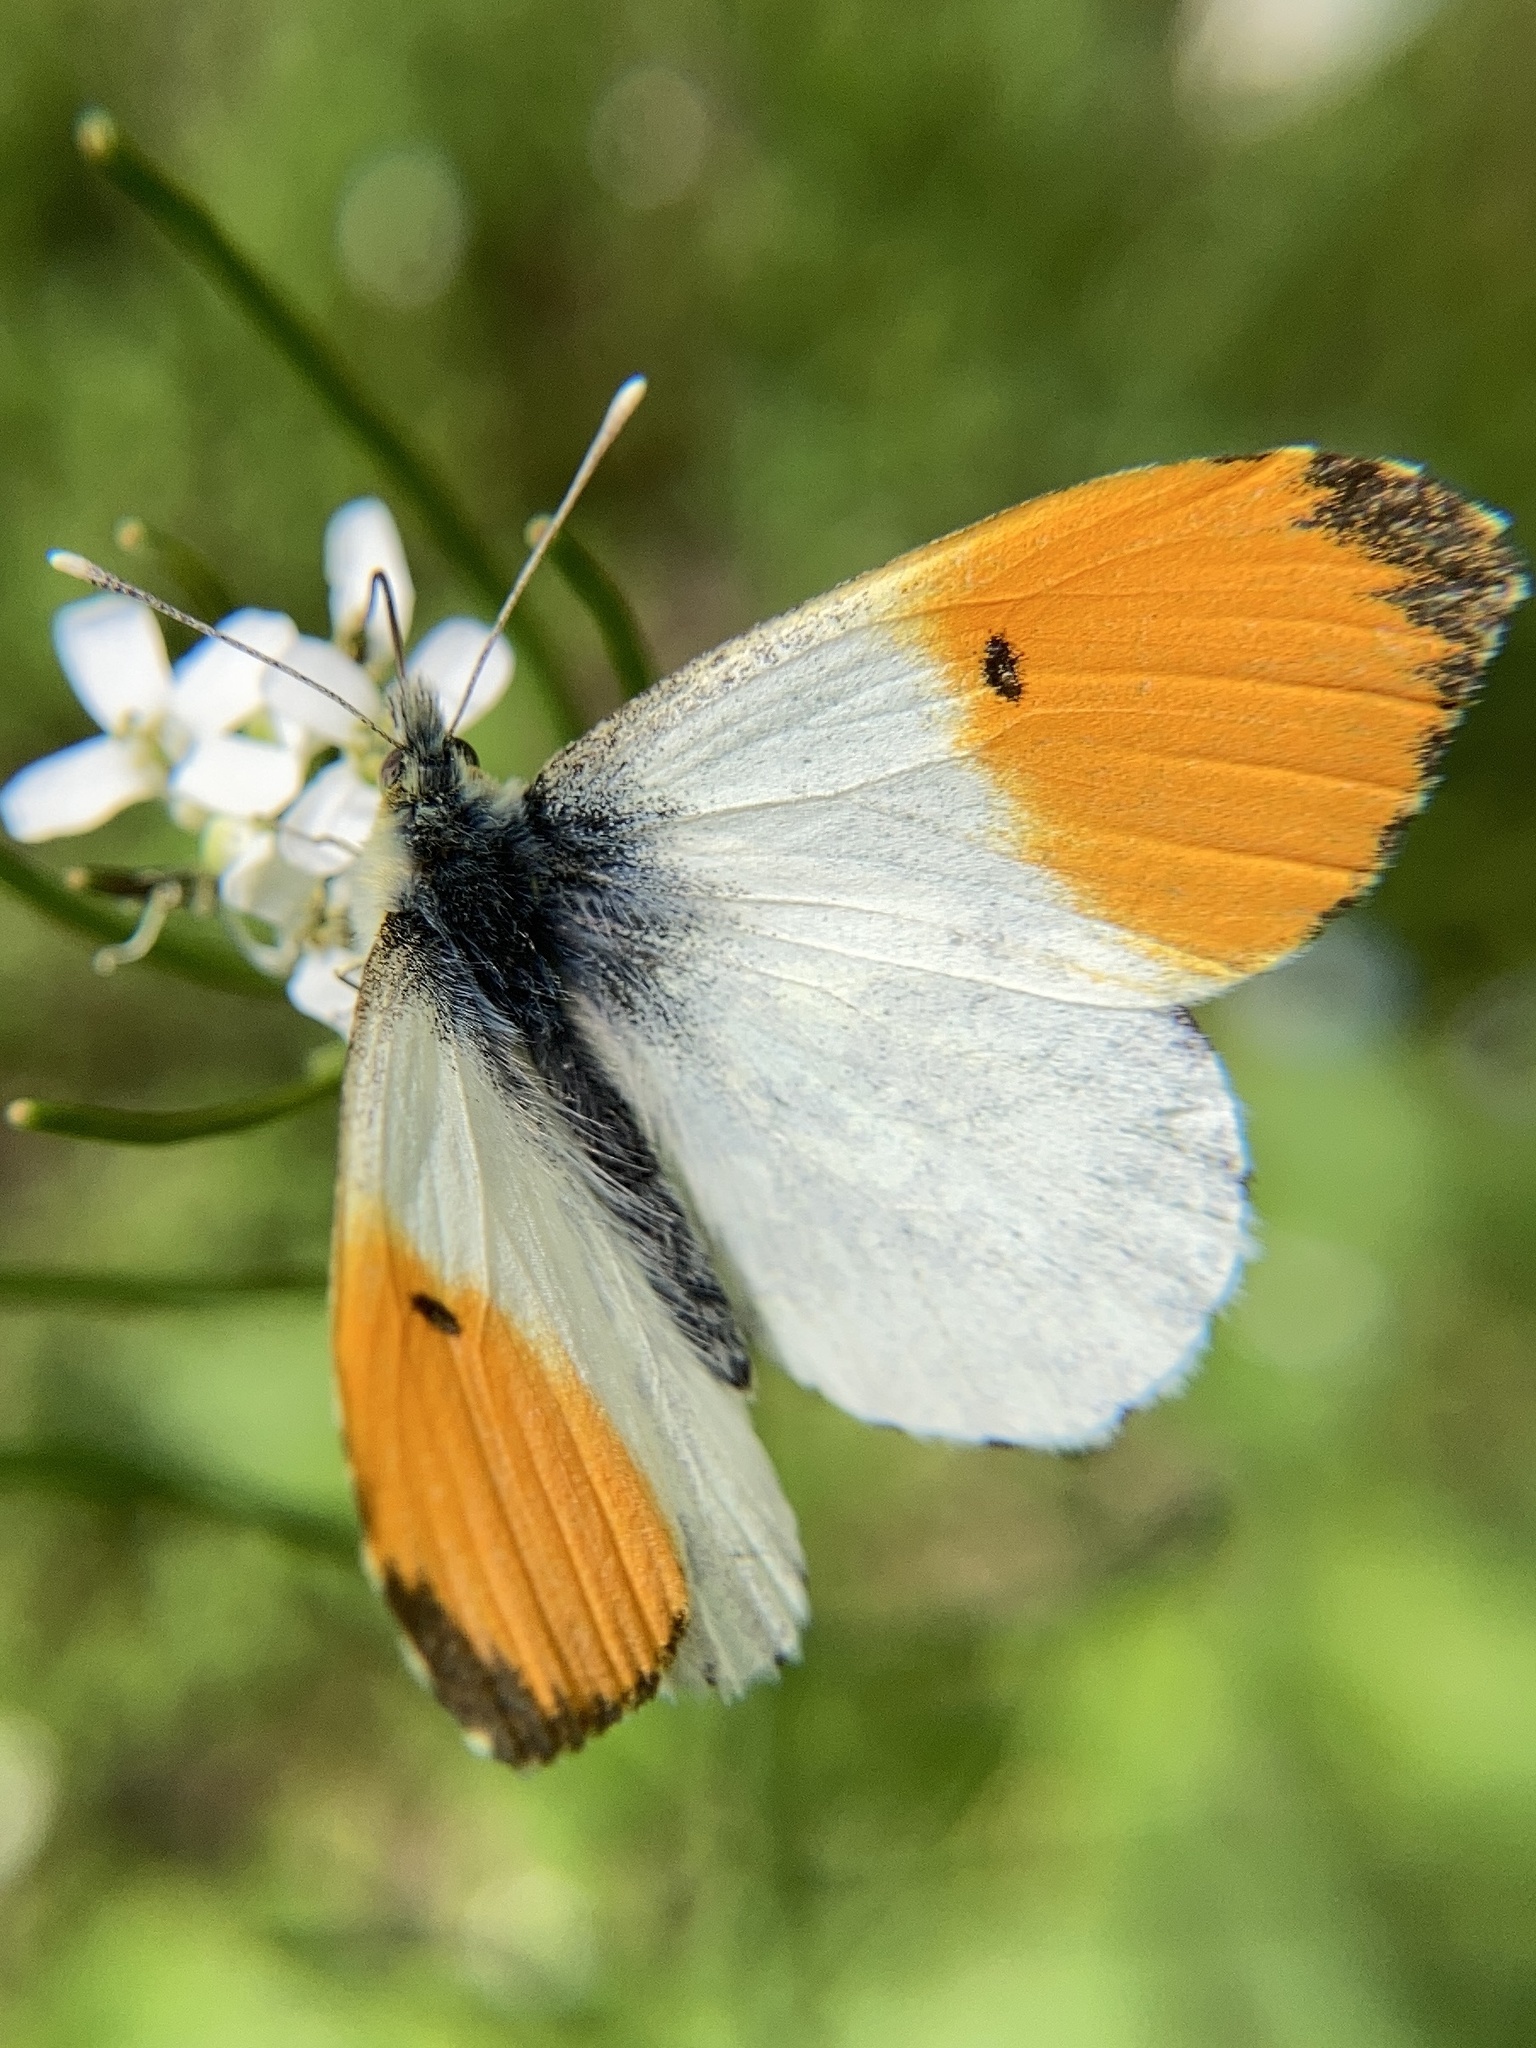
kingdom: Animalia
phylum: Arthropoda
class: Insecta
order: Lepidoptera
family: Pieridae
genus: Anthocharis
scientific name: Anthocharis cardamines
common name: Orange-tip
